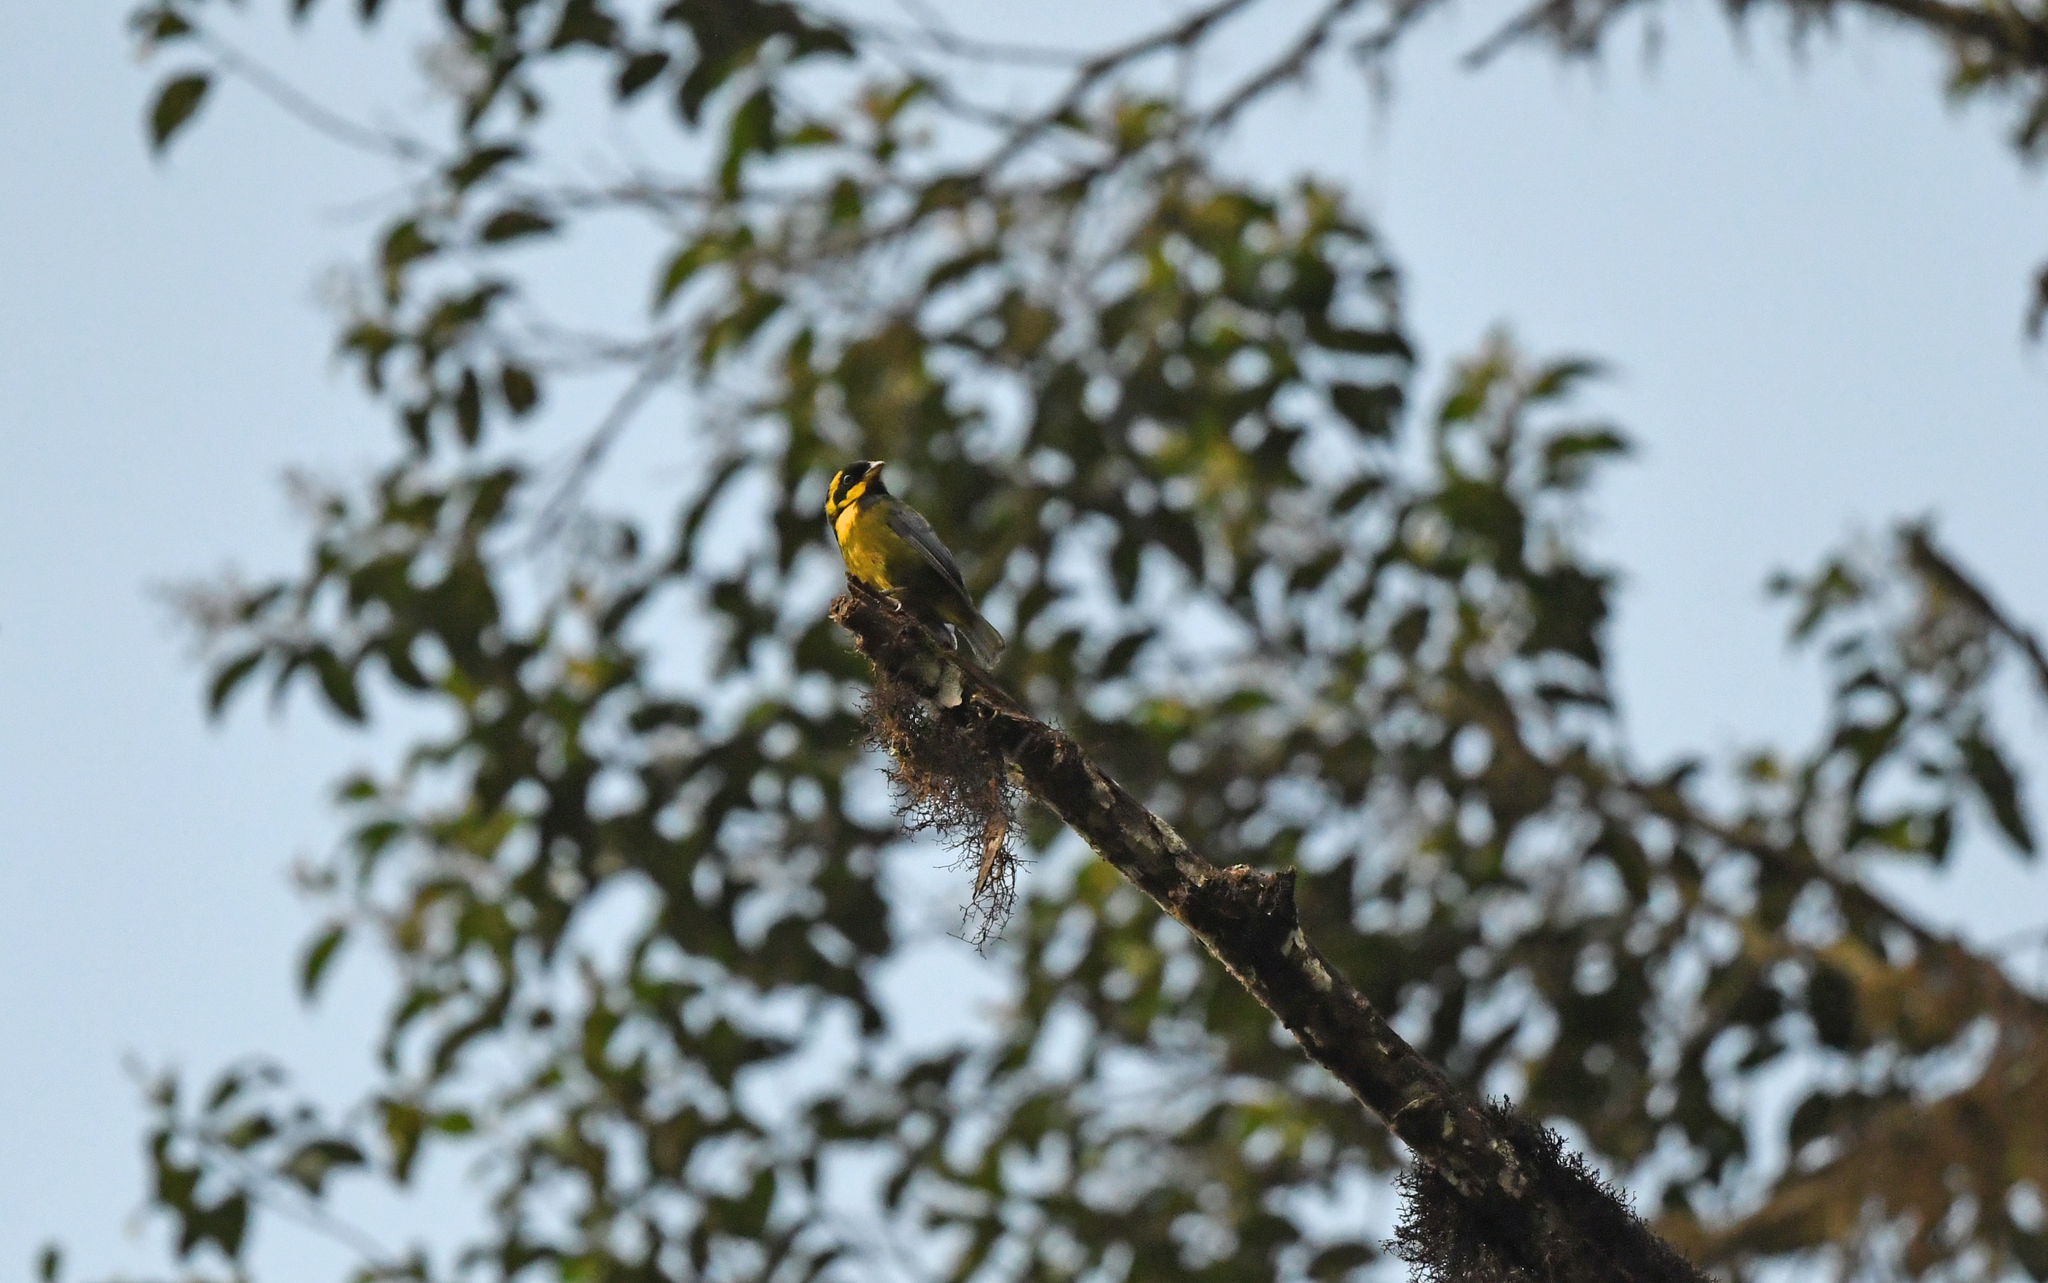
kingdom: Animalia
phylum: Chordata
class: Aves
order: Passeriformes
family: Thraupidae
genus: Bangsia
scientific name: Bangsia aureocincta
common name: Gold-ringed tanager
